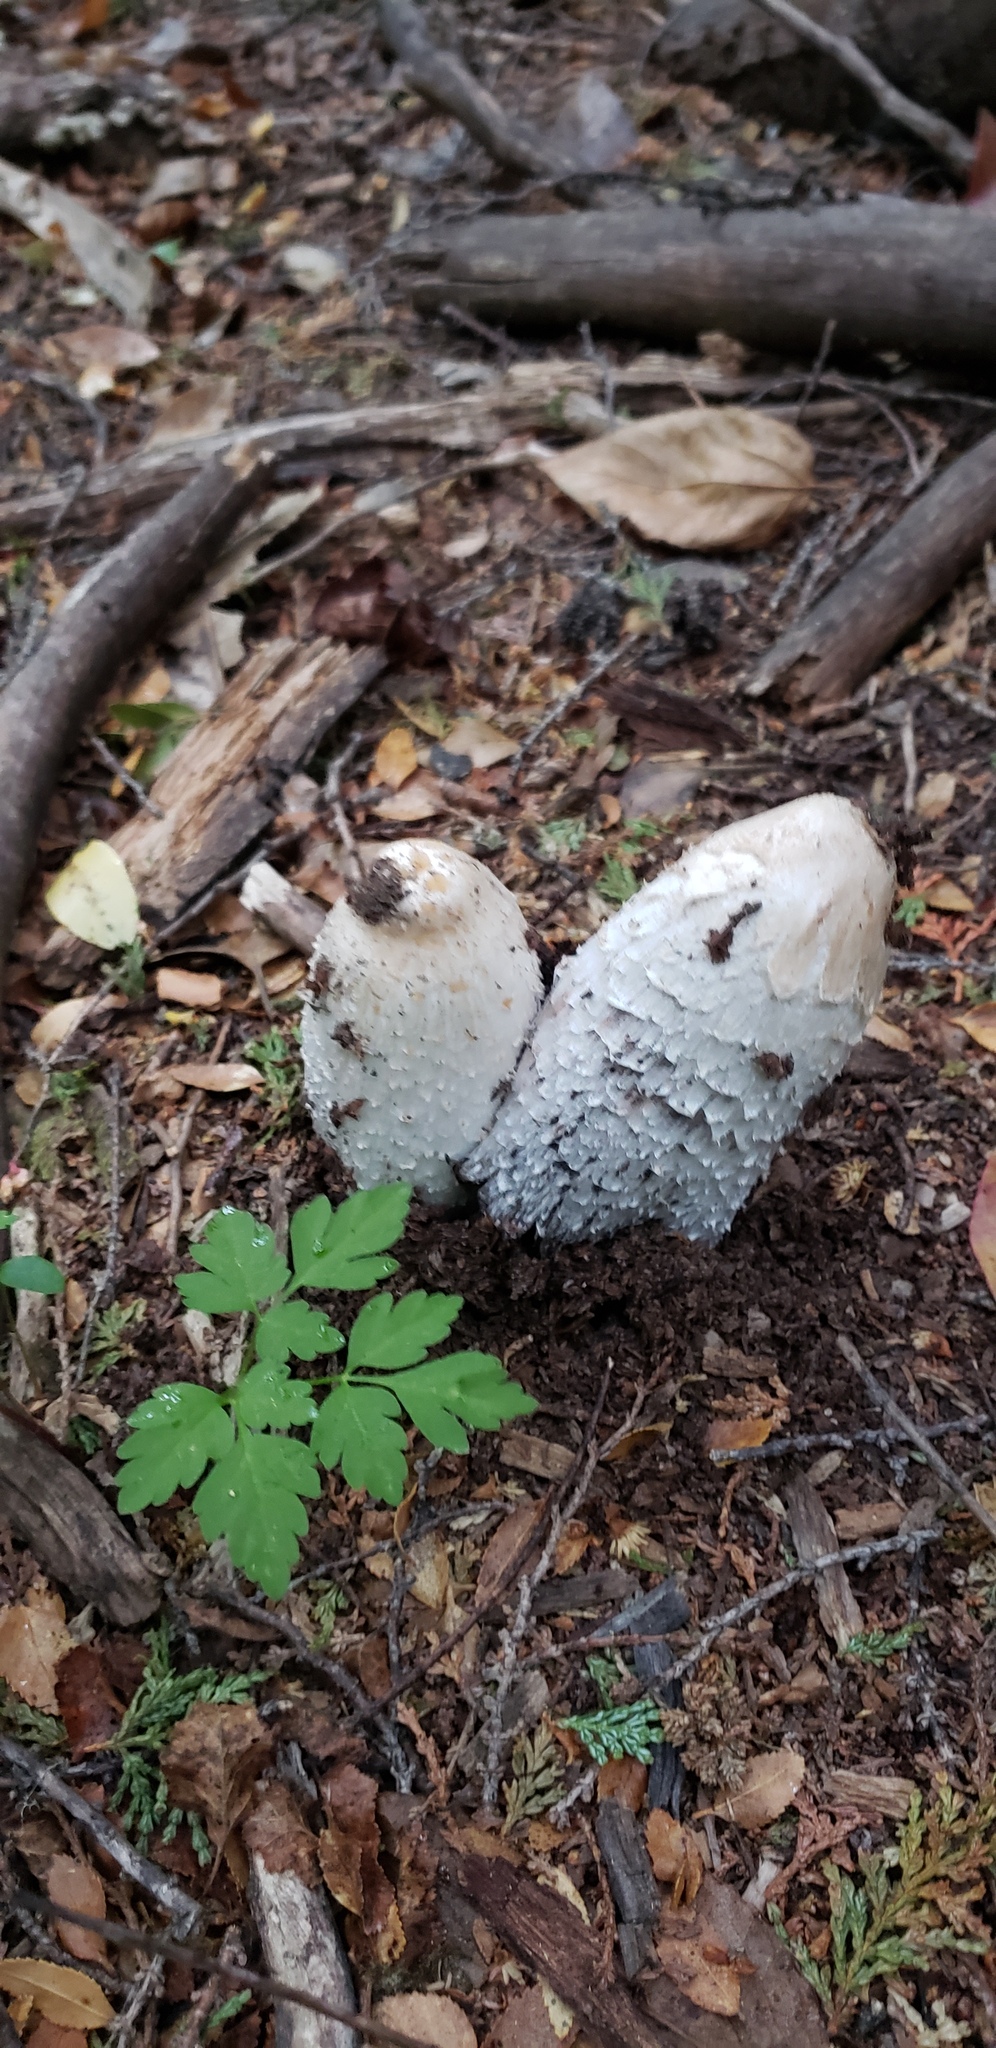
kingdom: Fungi
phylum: Basidiomycota
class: Agaricomycetes
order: Agaricales
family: Agaricaceae
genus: Coprinus
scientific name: Coprinus comatus
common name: Lawyer's wig
